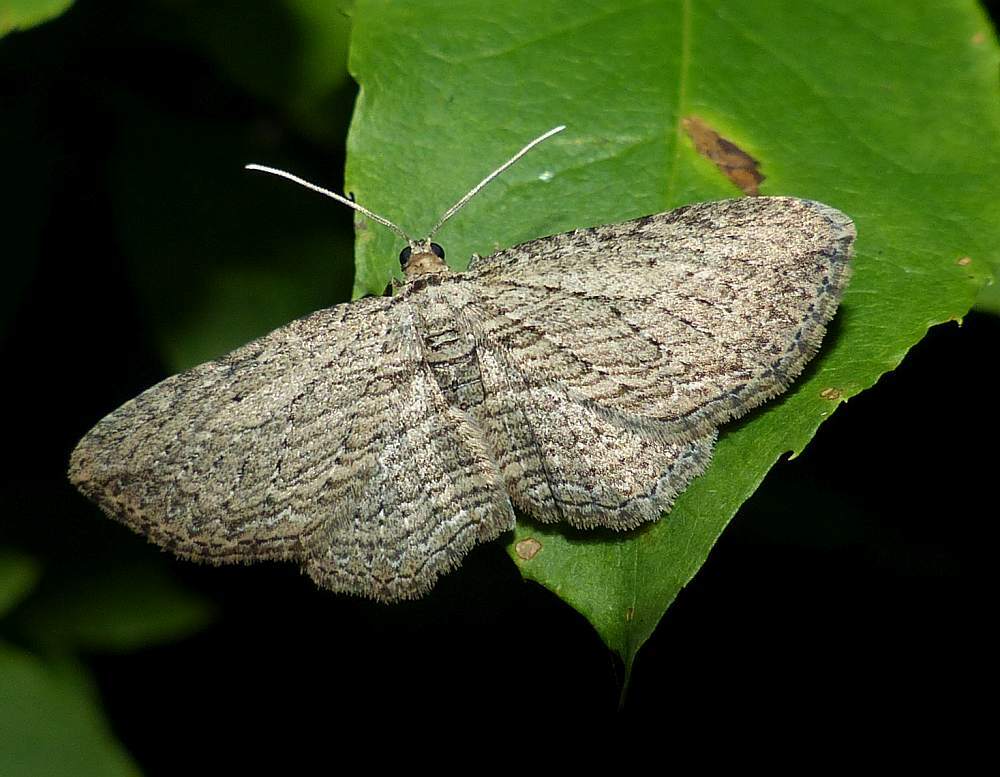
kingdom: Animalia
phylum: Arthropoda
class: Insecta
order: Lepidoptera
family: Geometridae
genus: Horisme
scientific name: Horisme intestinata
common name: Brown bark carpet
